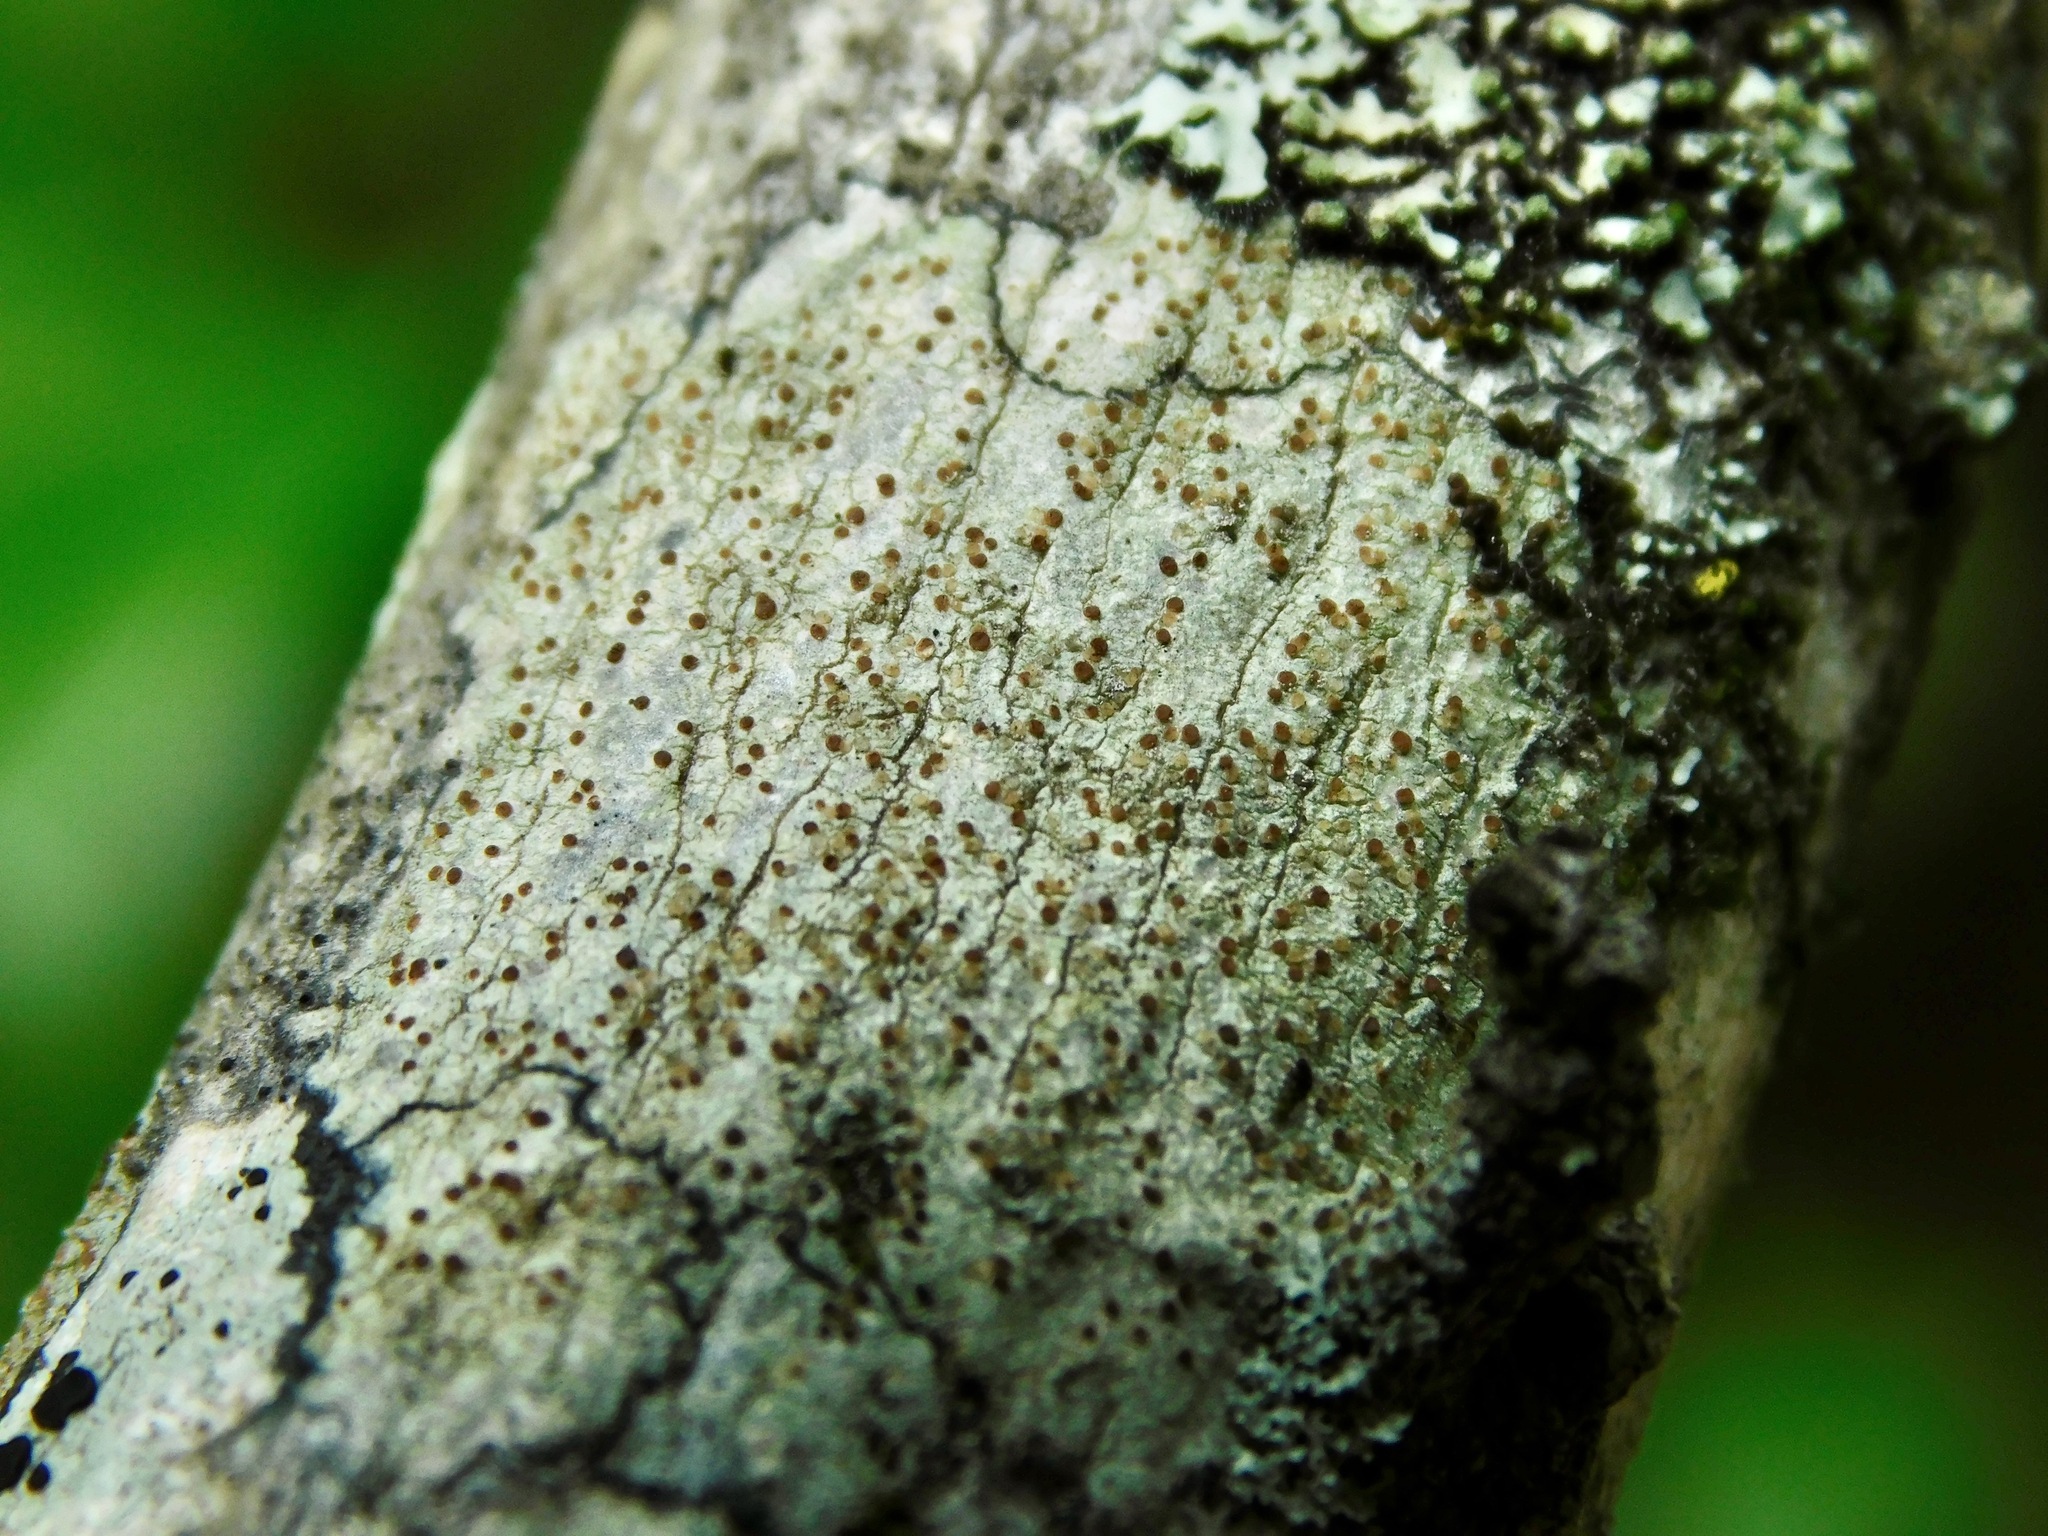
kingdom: Fungi
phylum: Ascomycota
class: Lecanoromycetes
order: Lecanorales
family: Lecanoraceae
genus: Traponora
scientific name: Traponora varians
